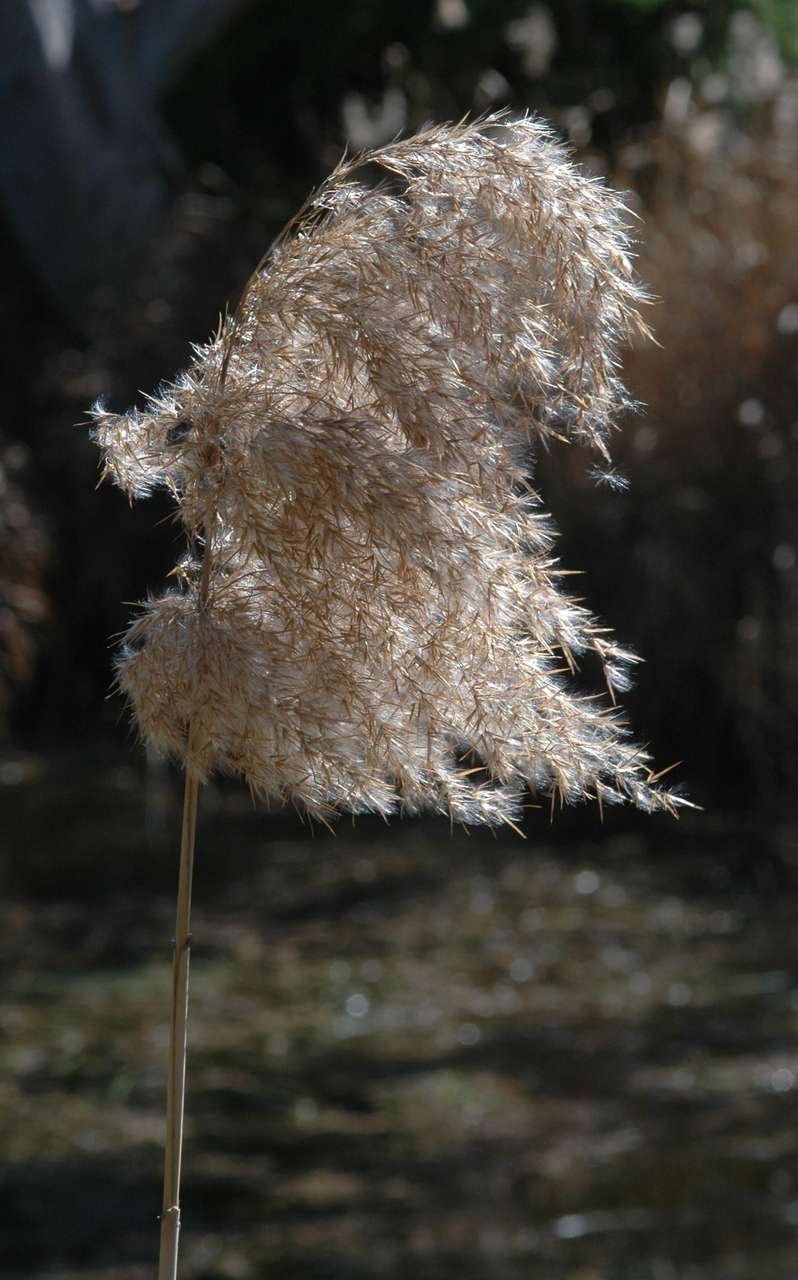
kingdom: Plantae
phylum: Tracheophyta
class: Liliopsida
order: Poales
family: Poaceae
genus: Phragmites
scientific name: Phragmites australis
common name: Common reed
